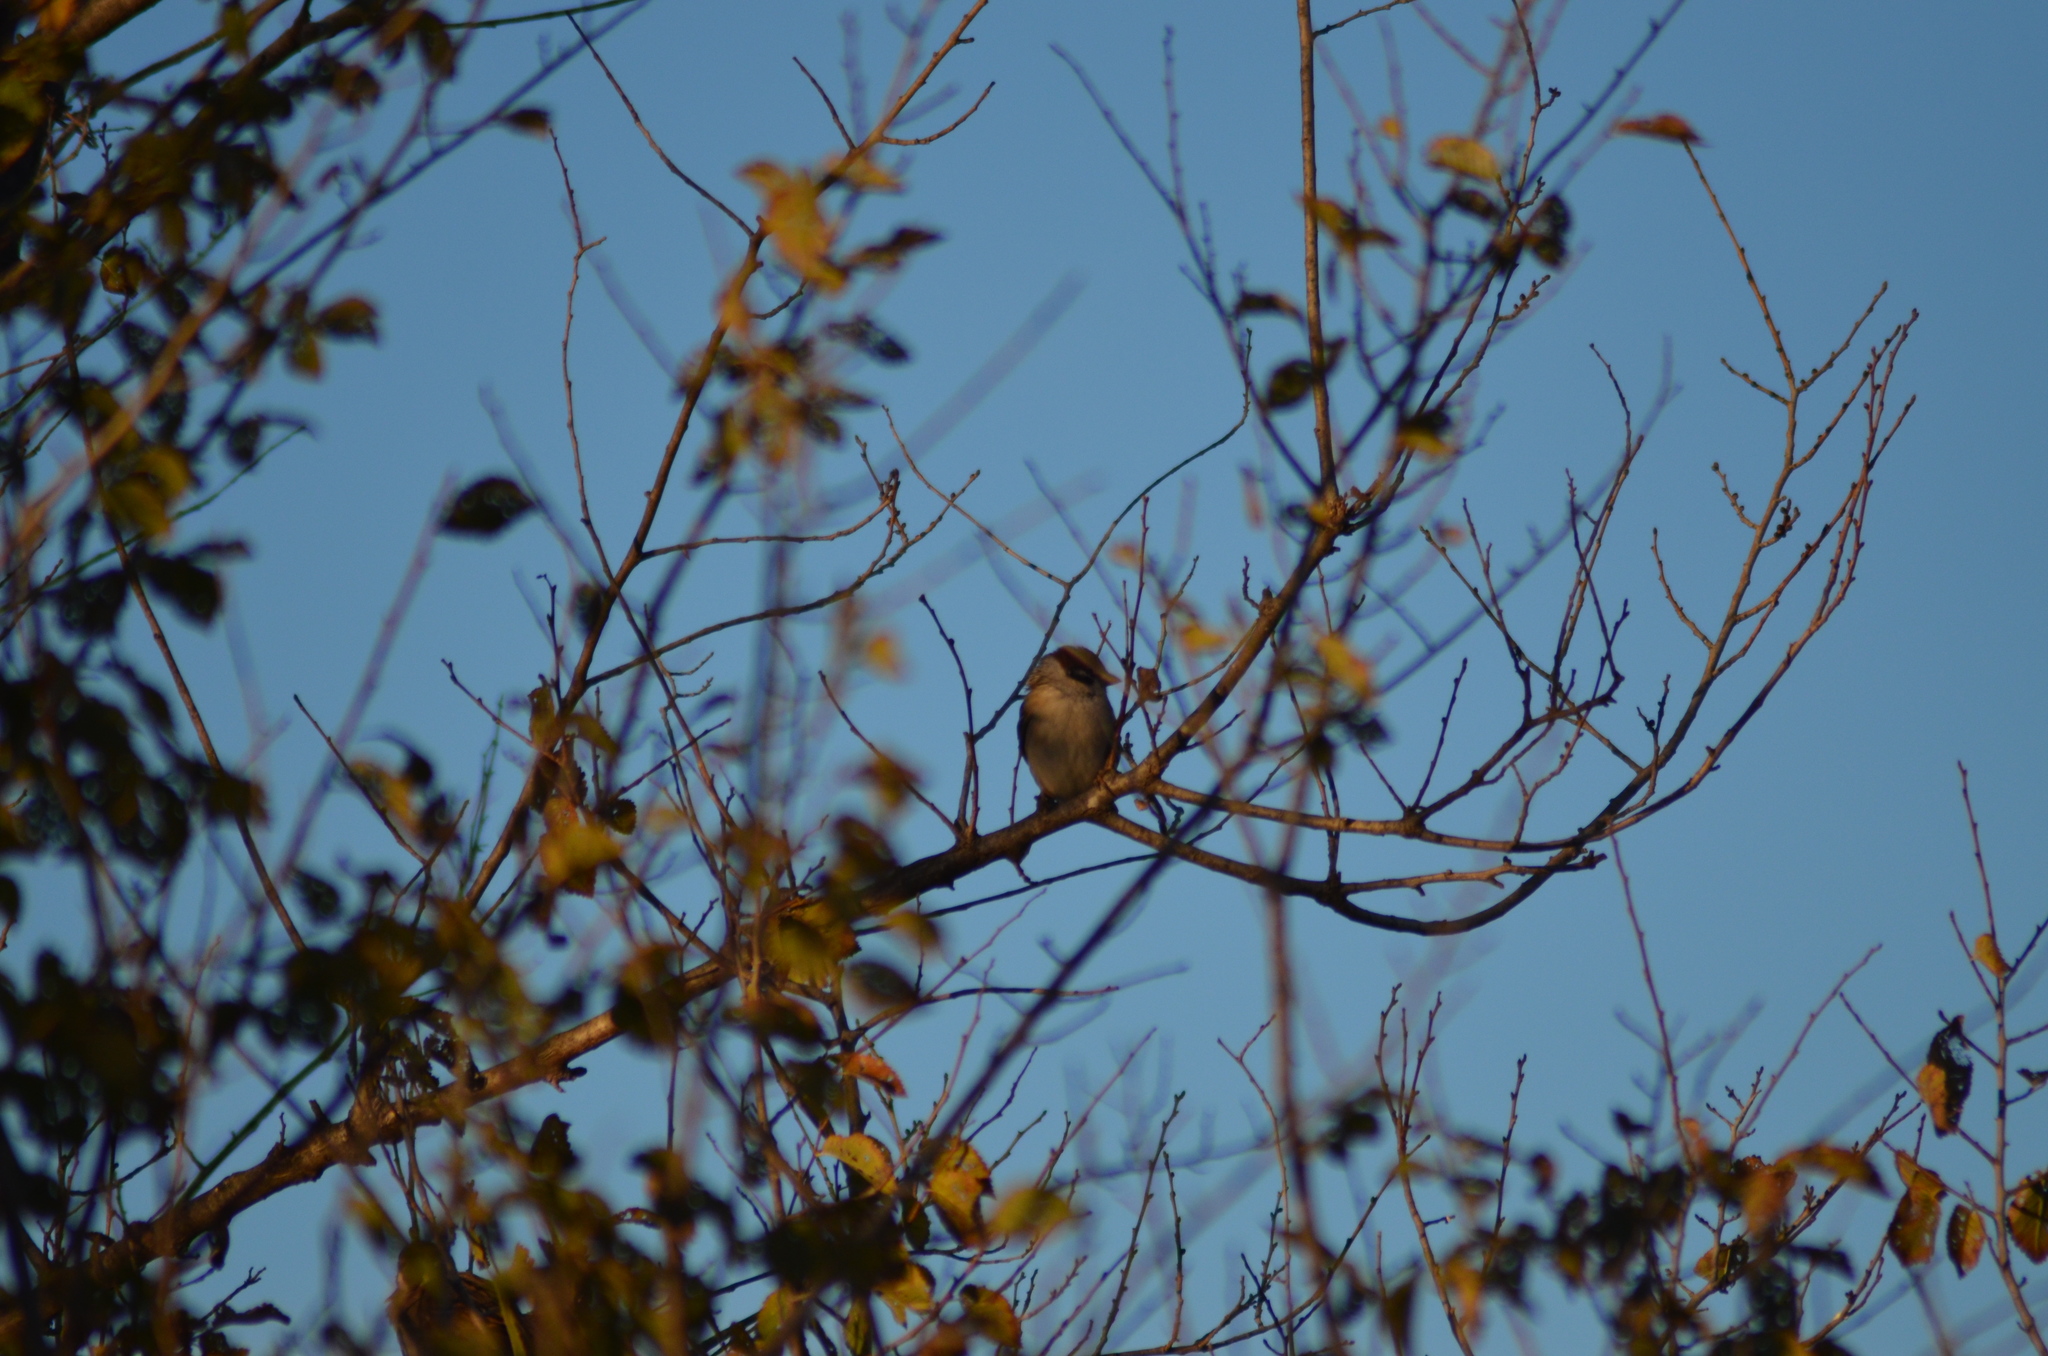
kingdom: Animalia
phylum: Chordata
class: Aves
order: Passeriformes
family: Passeridae
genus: Passer
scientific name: Passer montanus
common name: Eurasian tree sparrow
